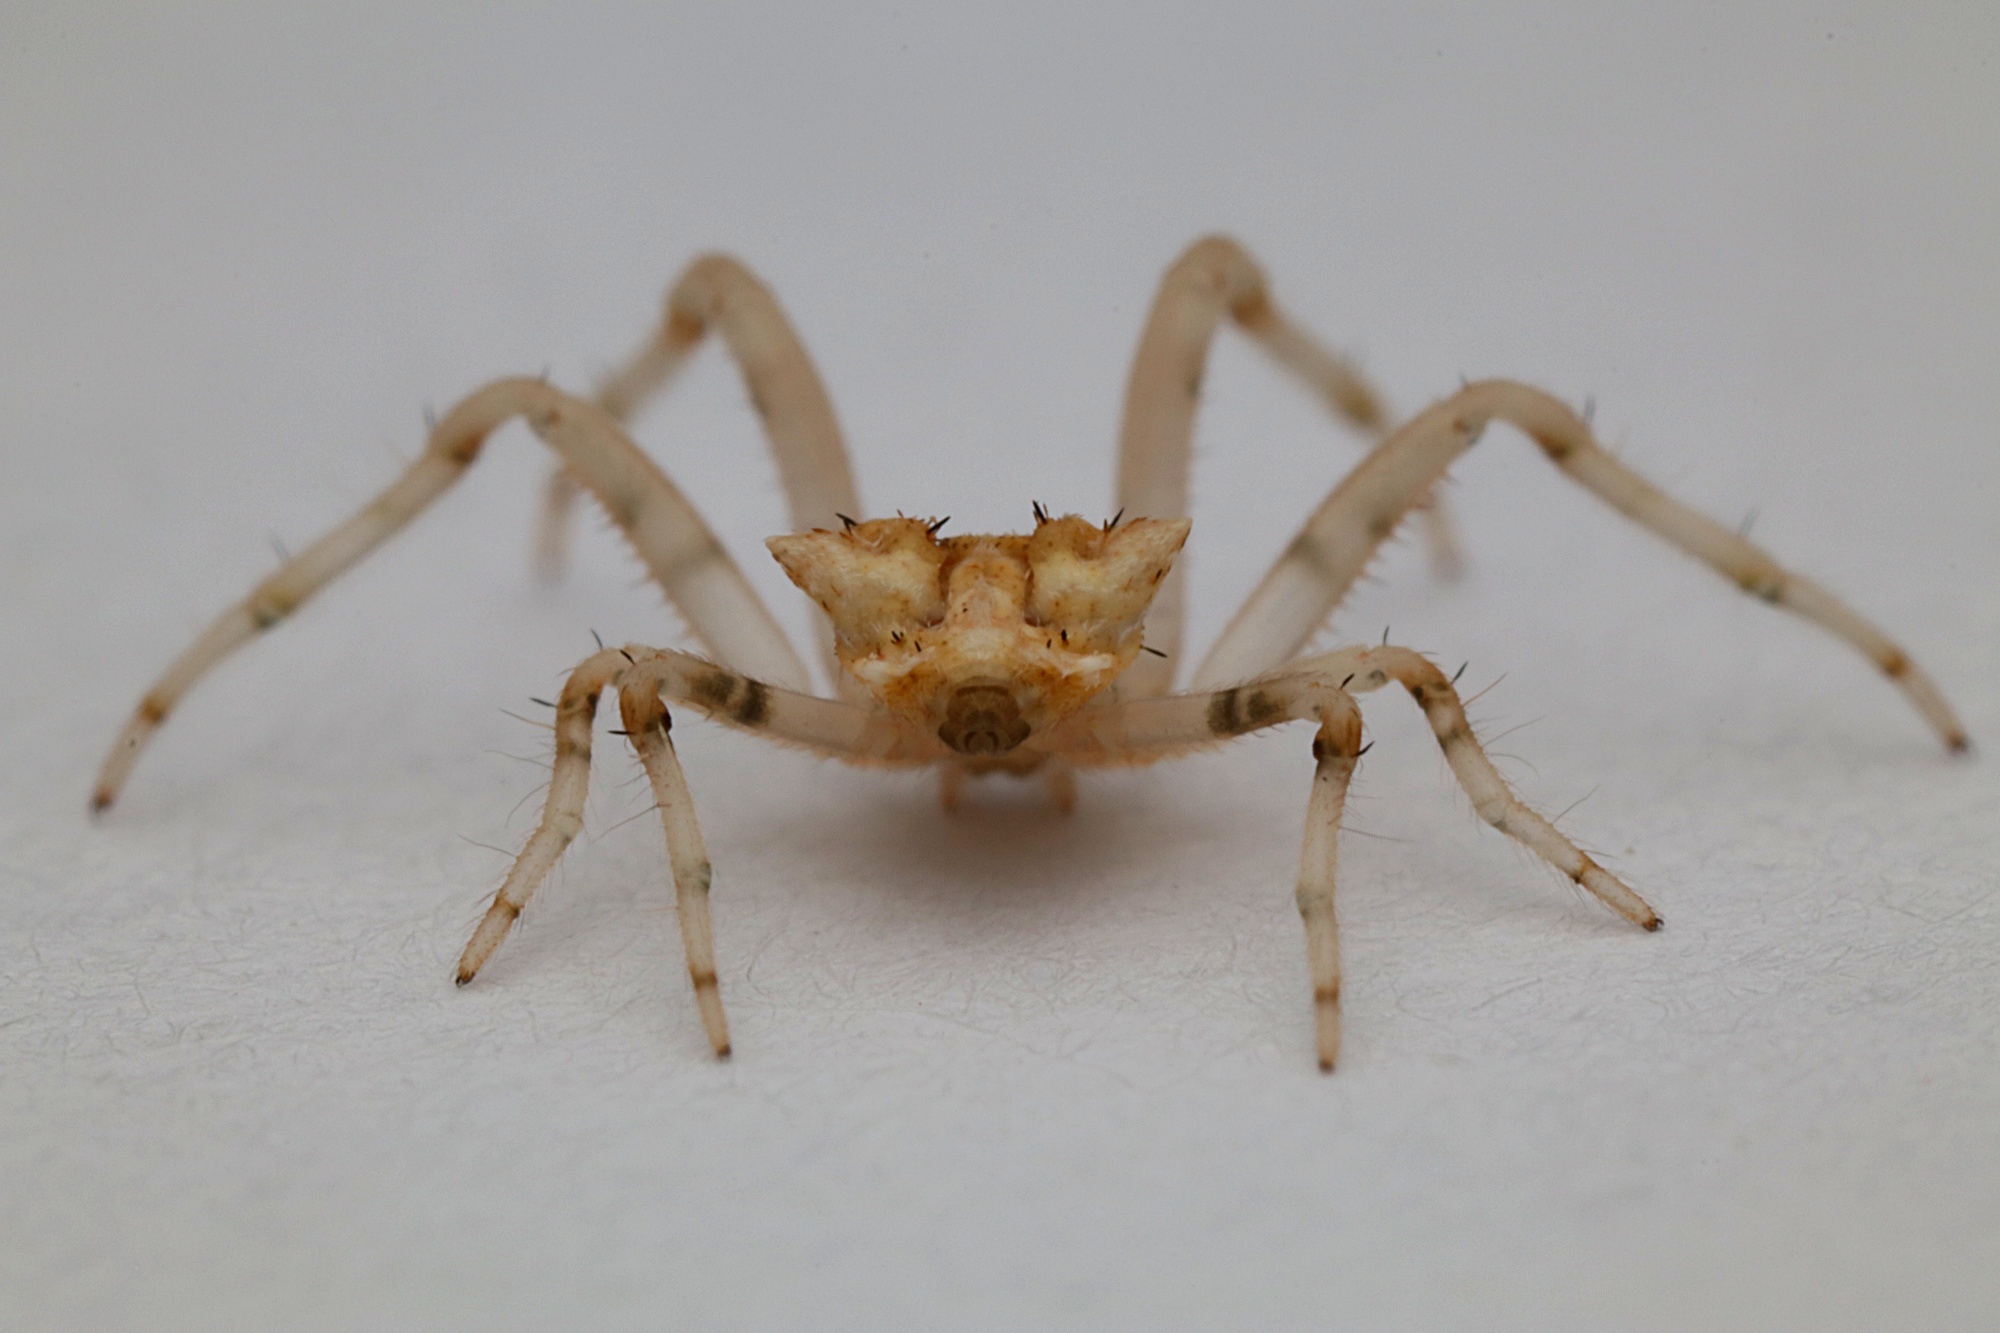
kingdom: Animalia
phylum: Arthropoda
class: Arachnida
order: Araneae
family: Araneidae
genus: Celaenia
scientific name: Celaenia atkinsoni
